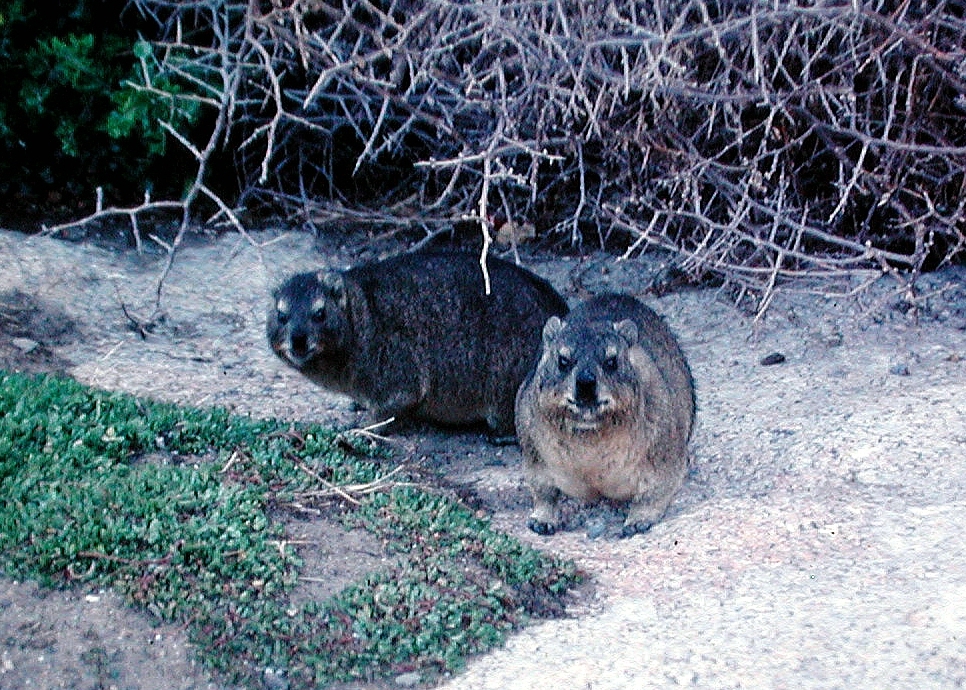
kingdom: Animalia
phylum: Chordata
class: Mammalia
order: Hyracoidea
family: Procaviidae
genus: Procavia
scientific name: Procavia capensis
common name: Rock hyrax
